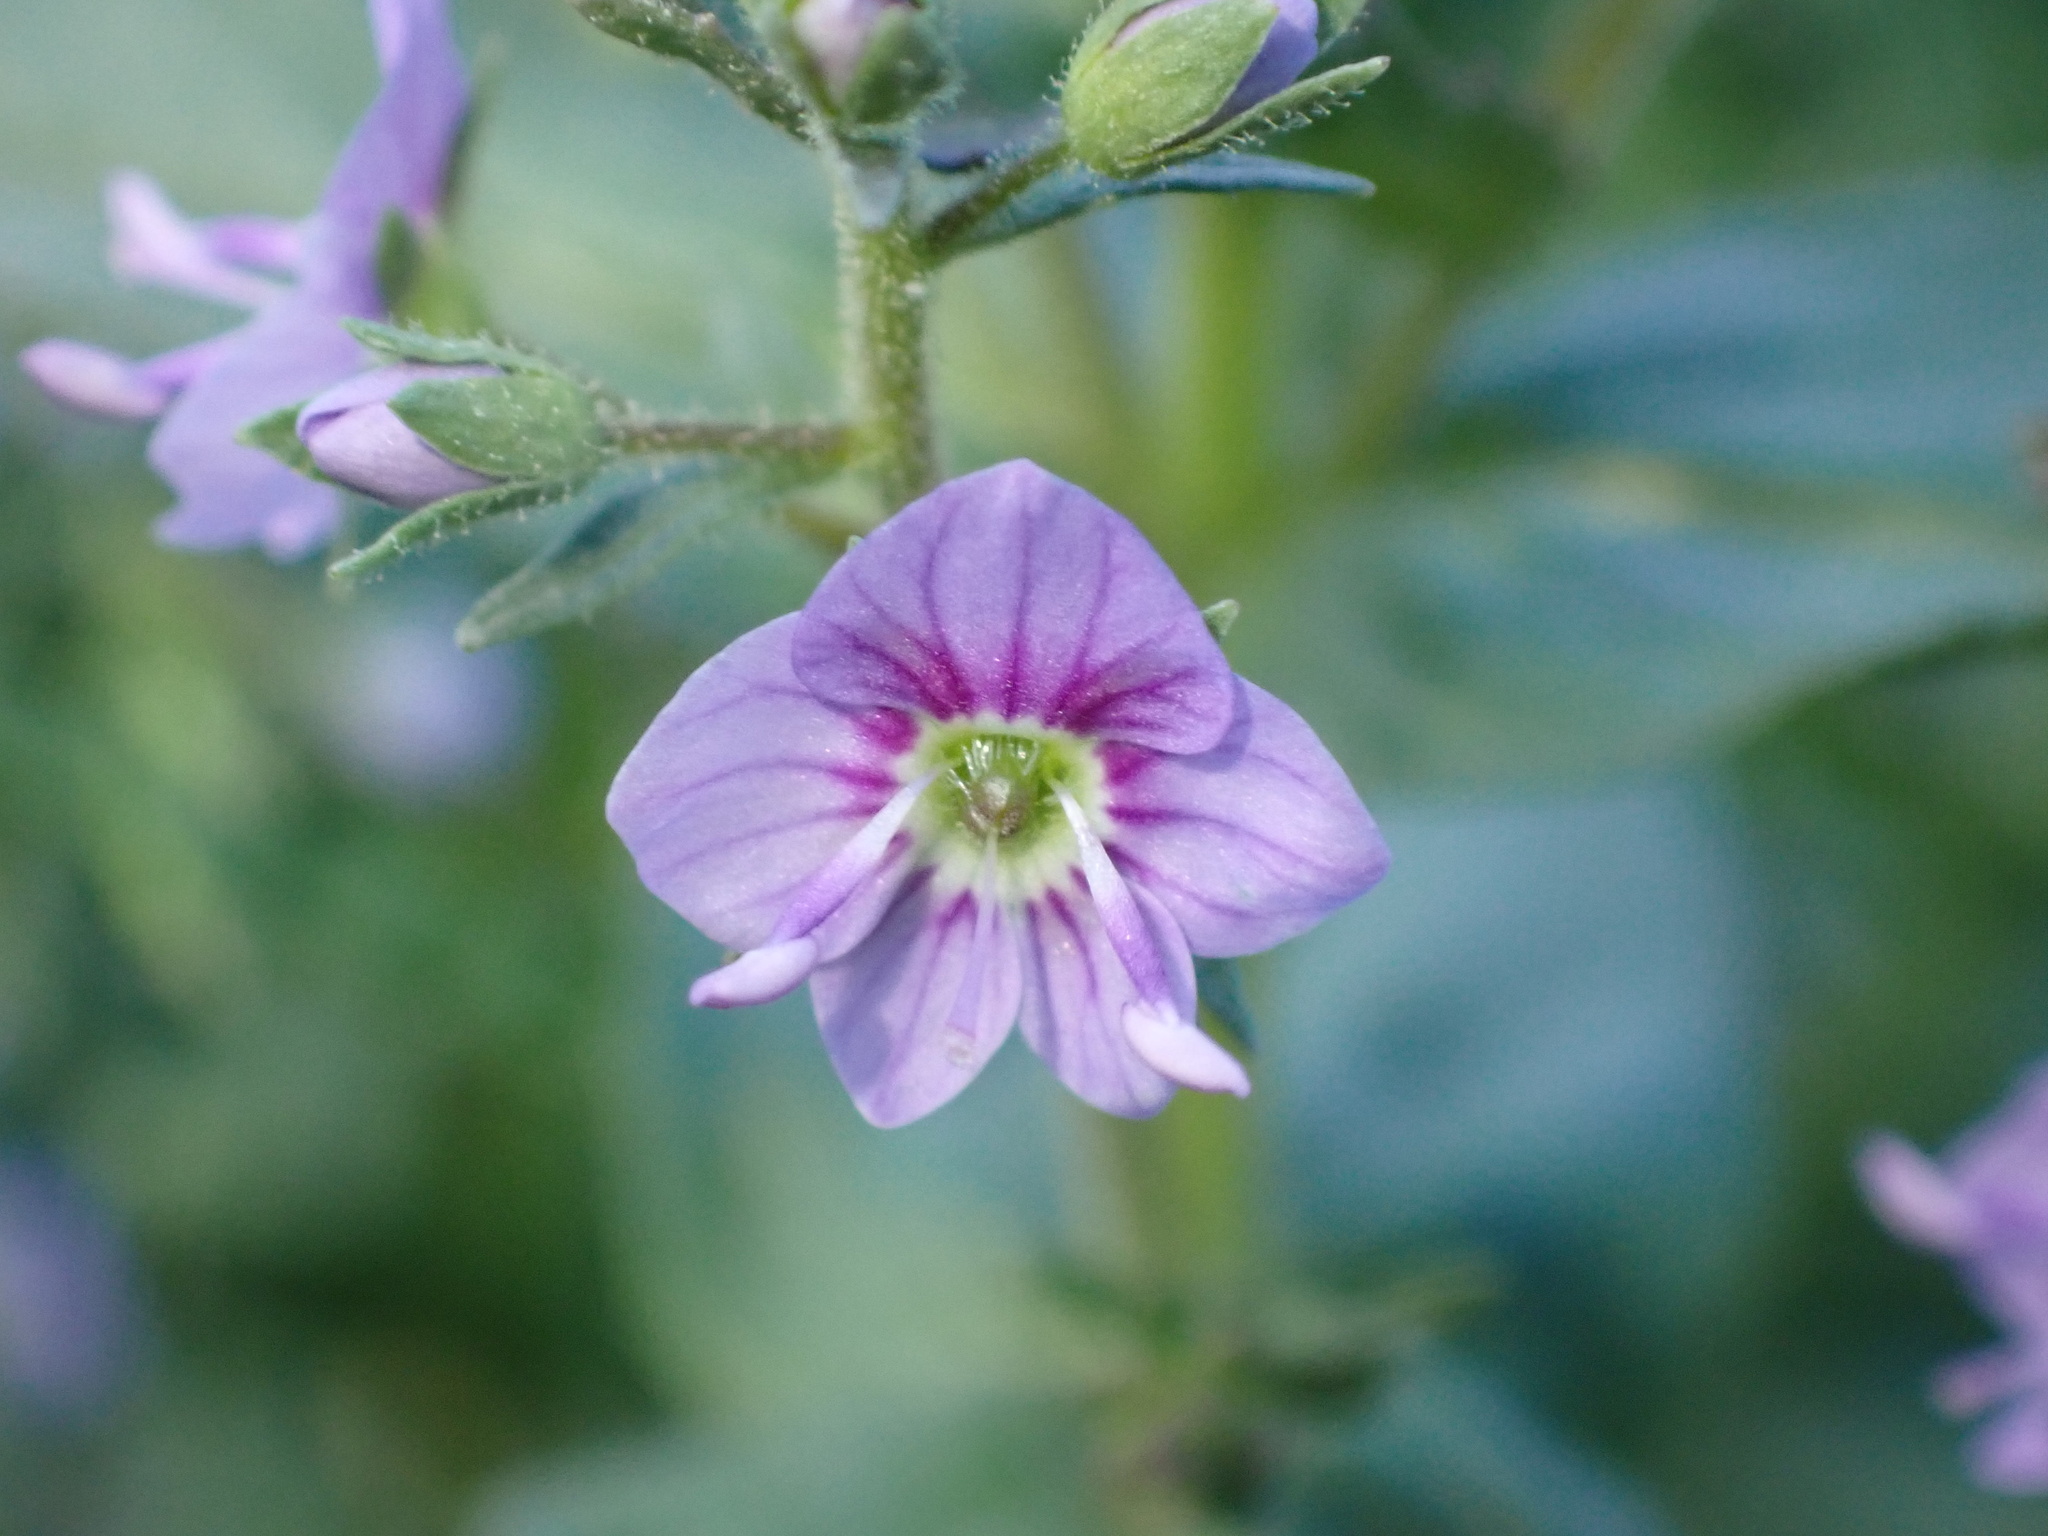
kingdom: Plantae
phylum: Tracheophyta
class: Magnoliopsida
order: Lamiales
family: Plantaginaceae
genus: Veronica
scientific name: Veronica anagalloides
